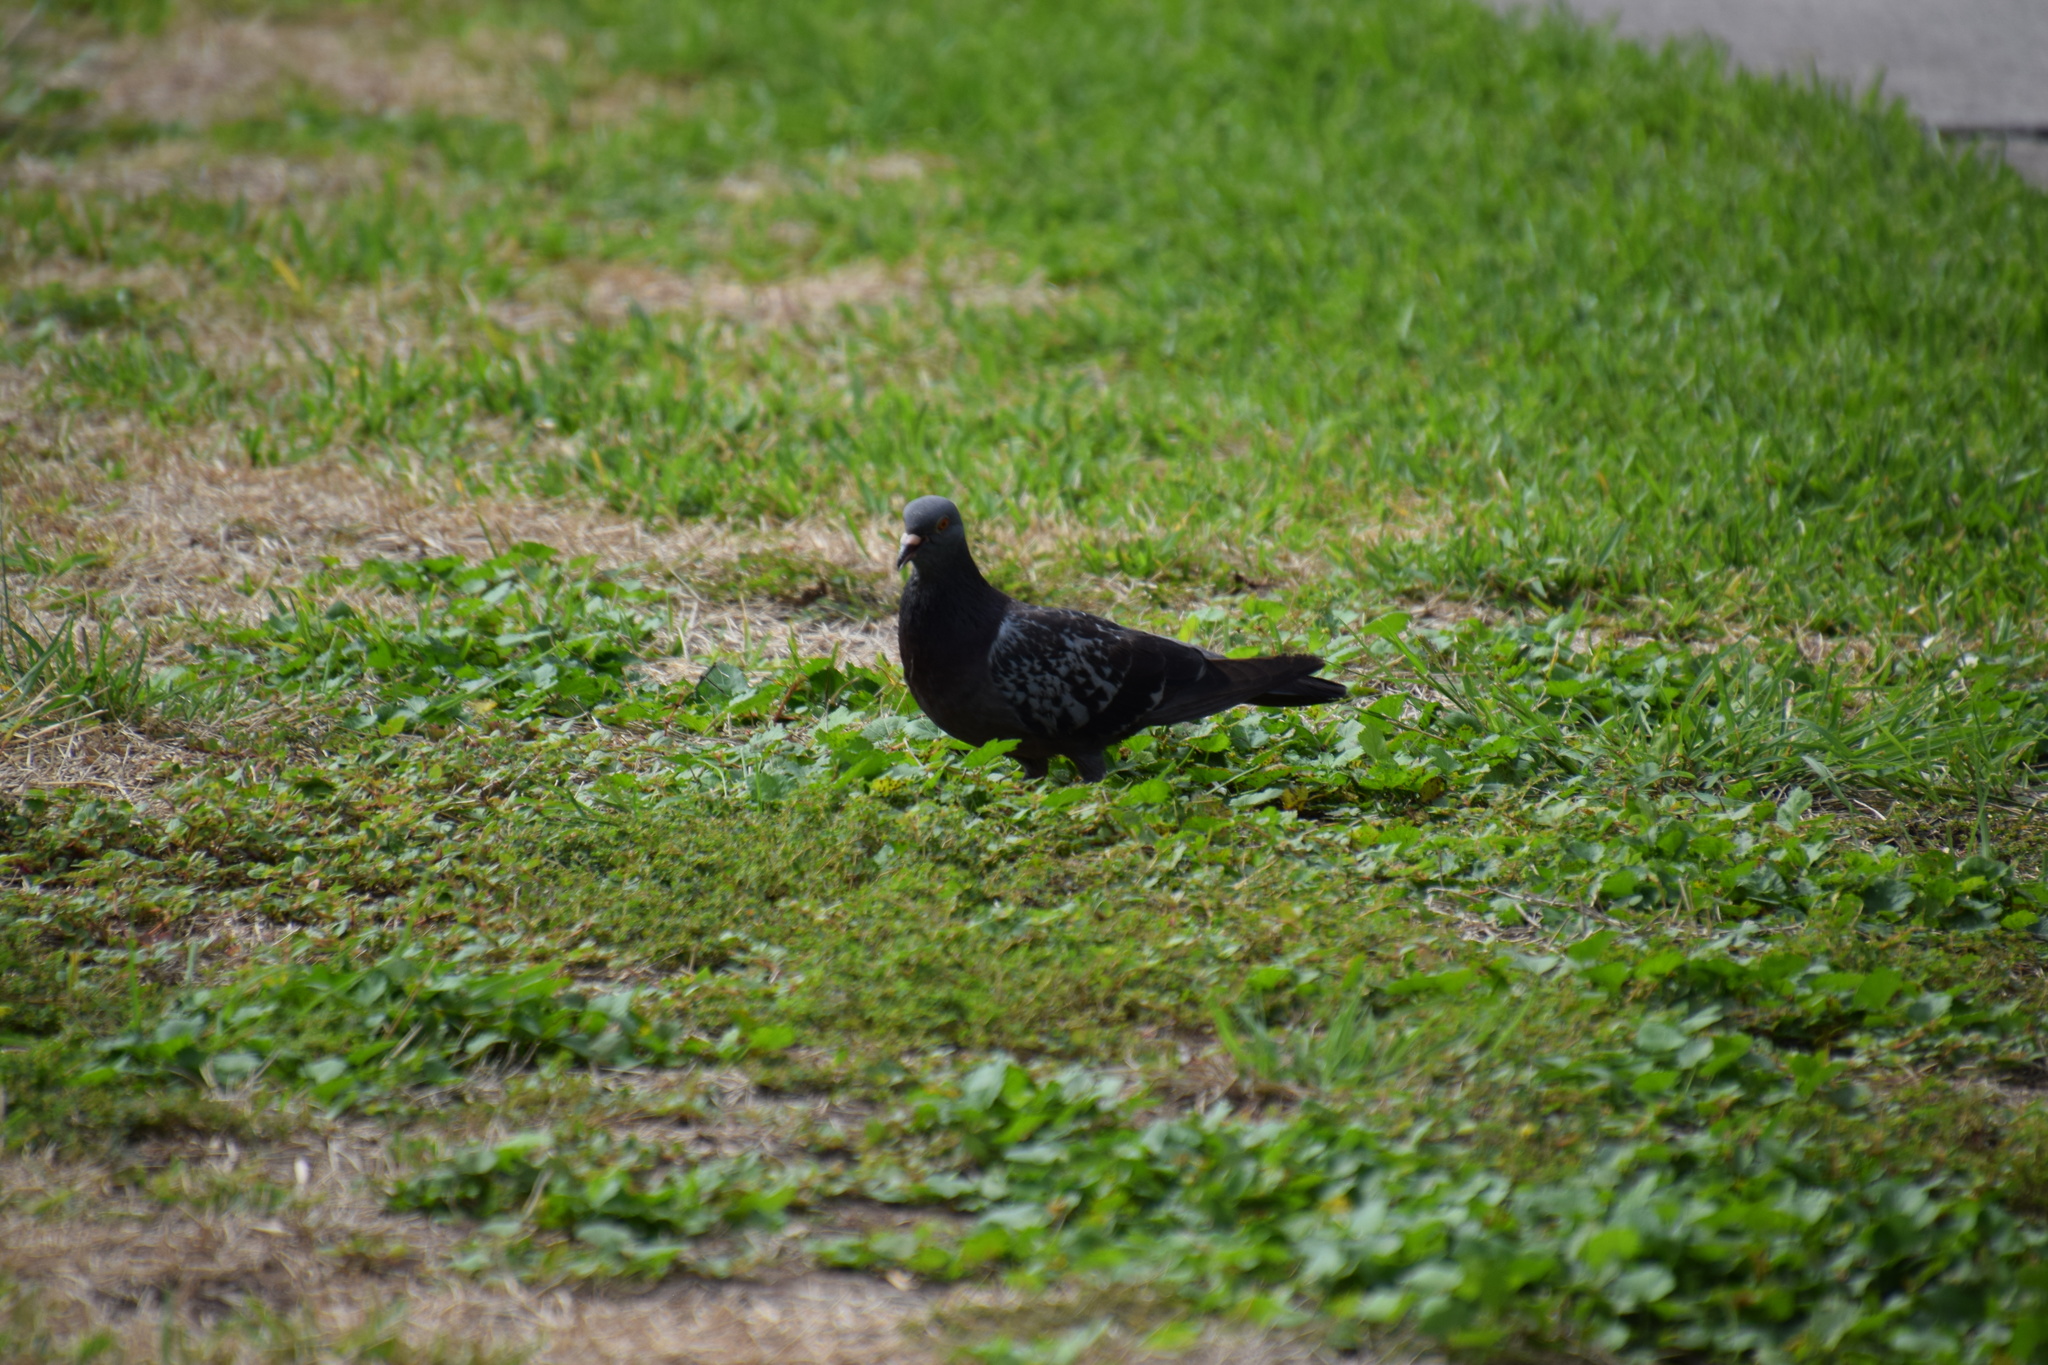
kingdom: Animalia
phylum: Chordata
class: Aves
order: Columbiformes
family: Columbidae
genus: Columba
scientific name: Columba livia
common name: Rock pigeon
